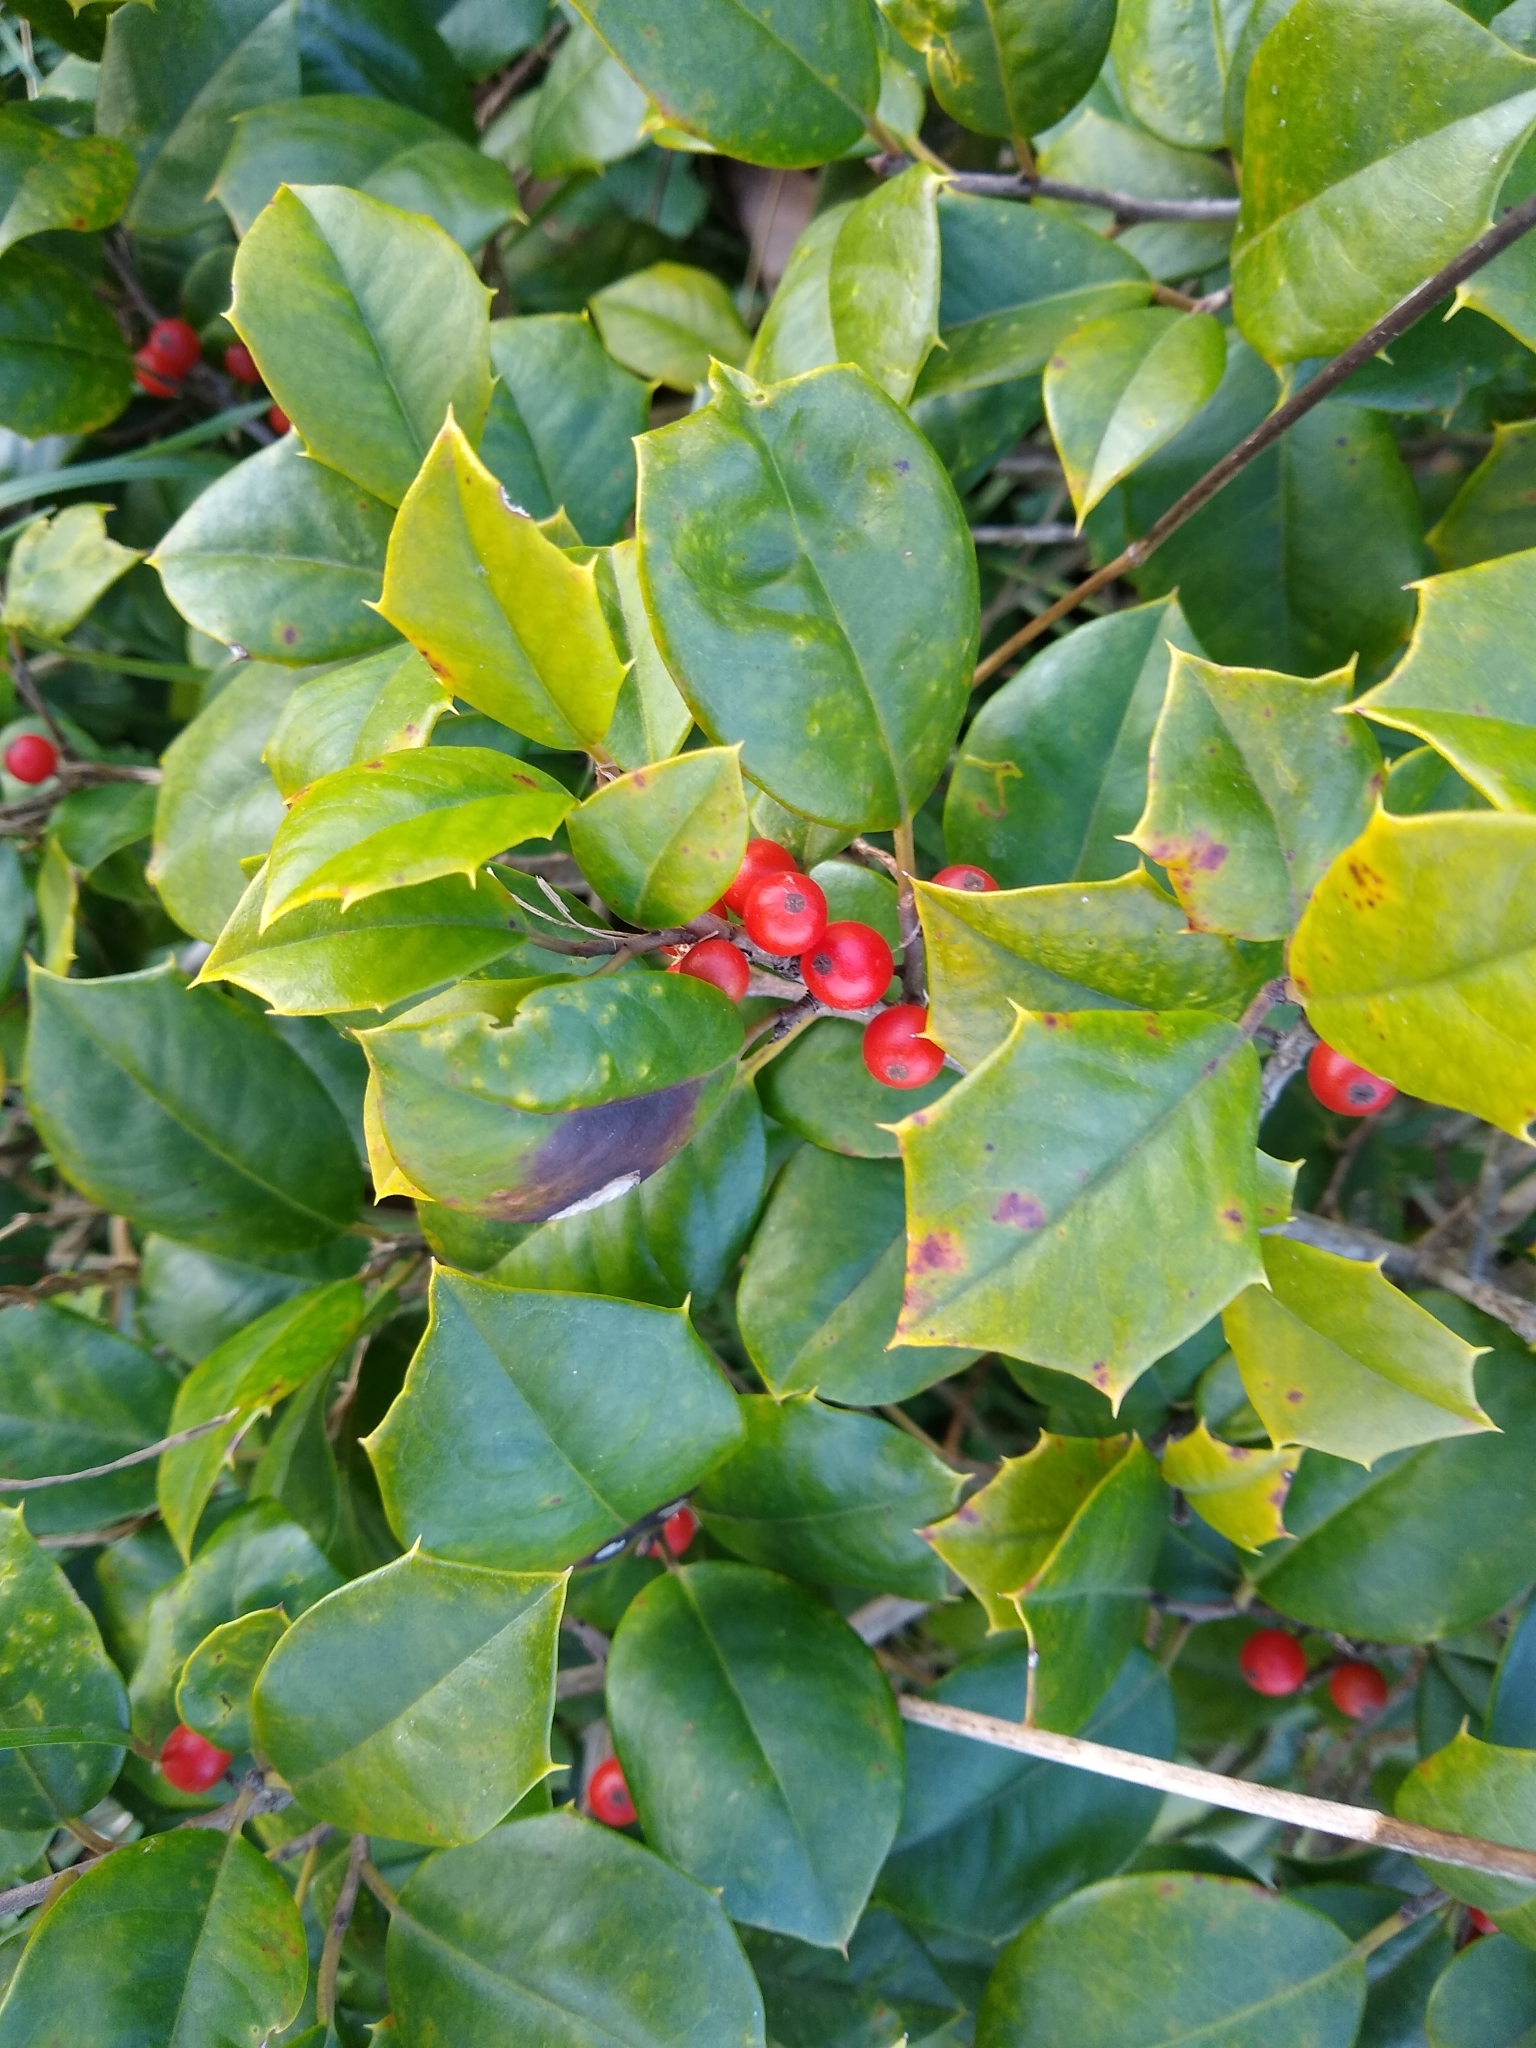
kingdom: Plantae
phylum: Tracheophyta
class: Magnoliopsida
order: Aquifoliales
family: Aquifoliaceae
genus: Ilex
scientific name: Ilex opaca
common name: American holly
